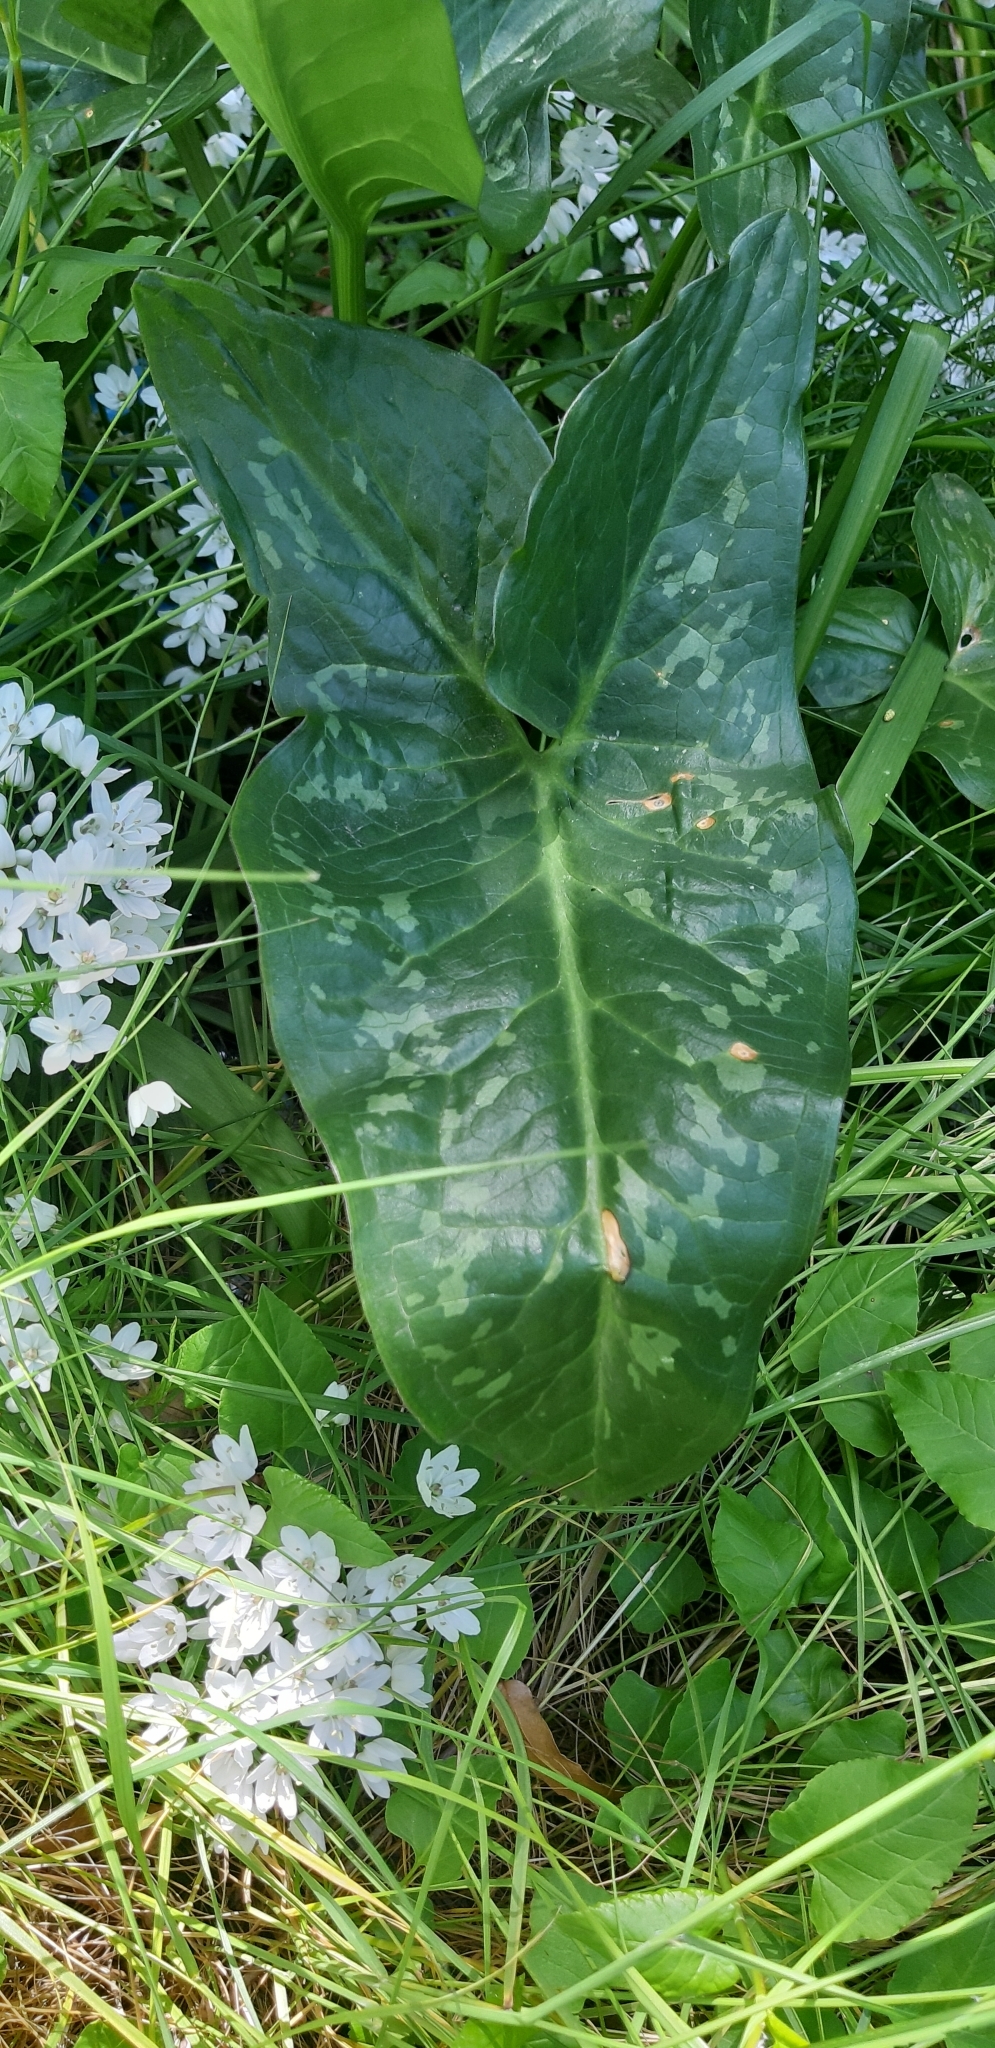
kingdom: Plantae
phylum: Tracheophyta
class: Liliopsida
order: Alismatales
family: Araceae
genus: Arum
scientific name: Arum italicum
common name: Italian lords-and-ladies
